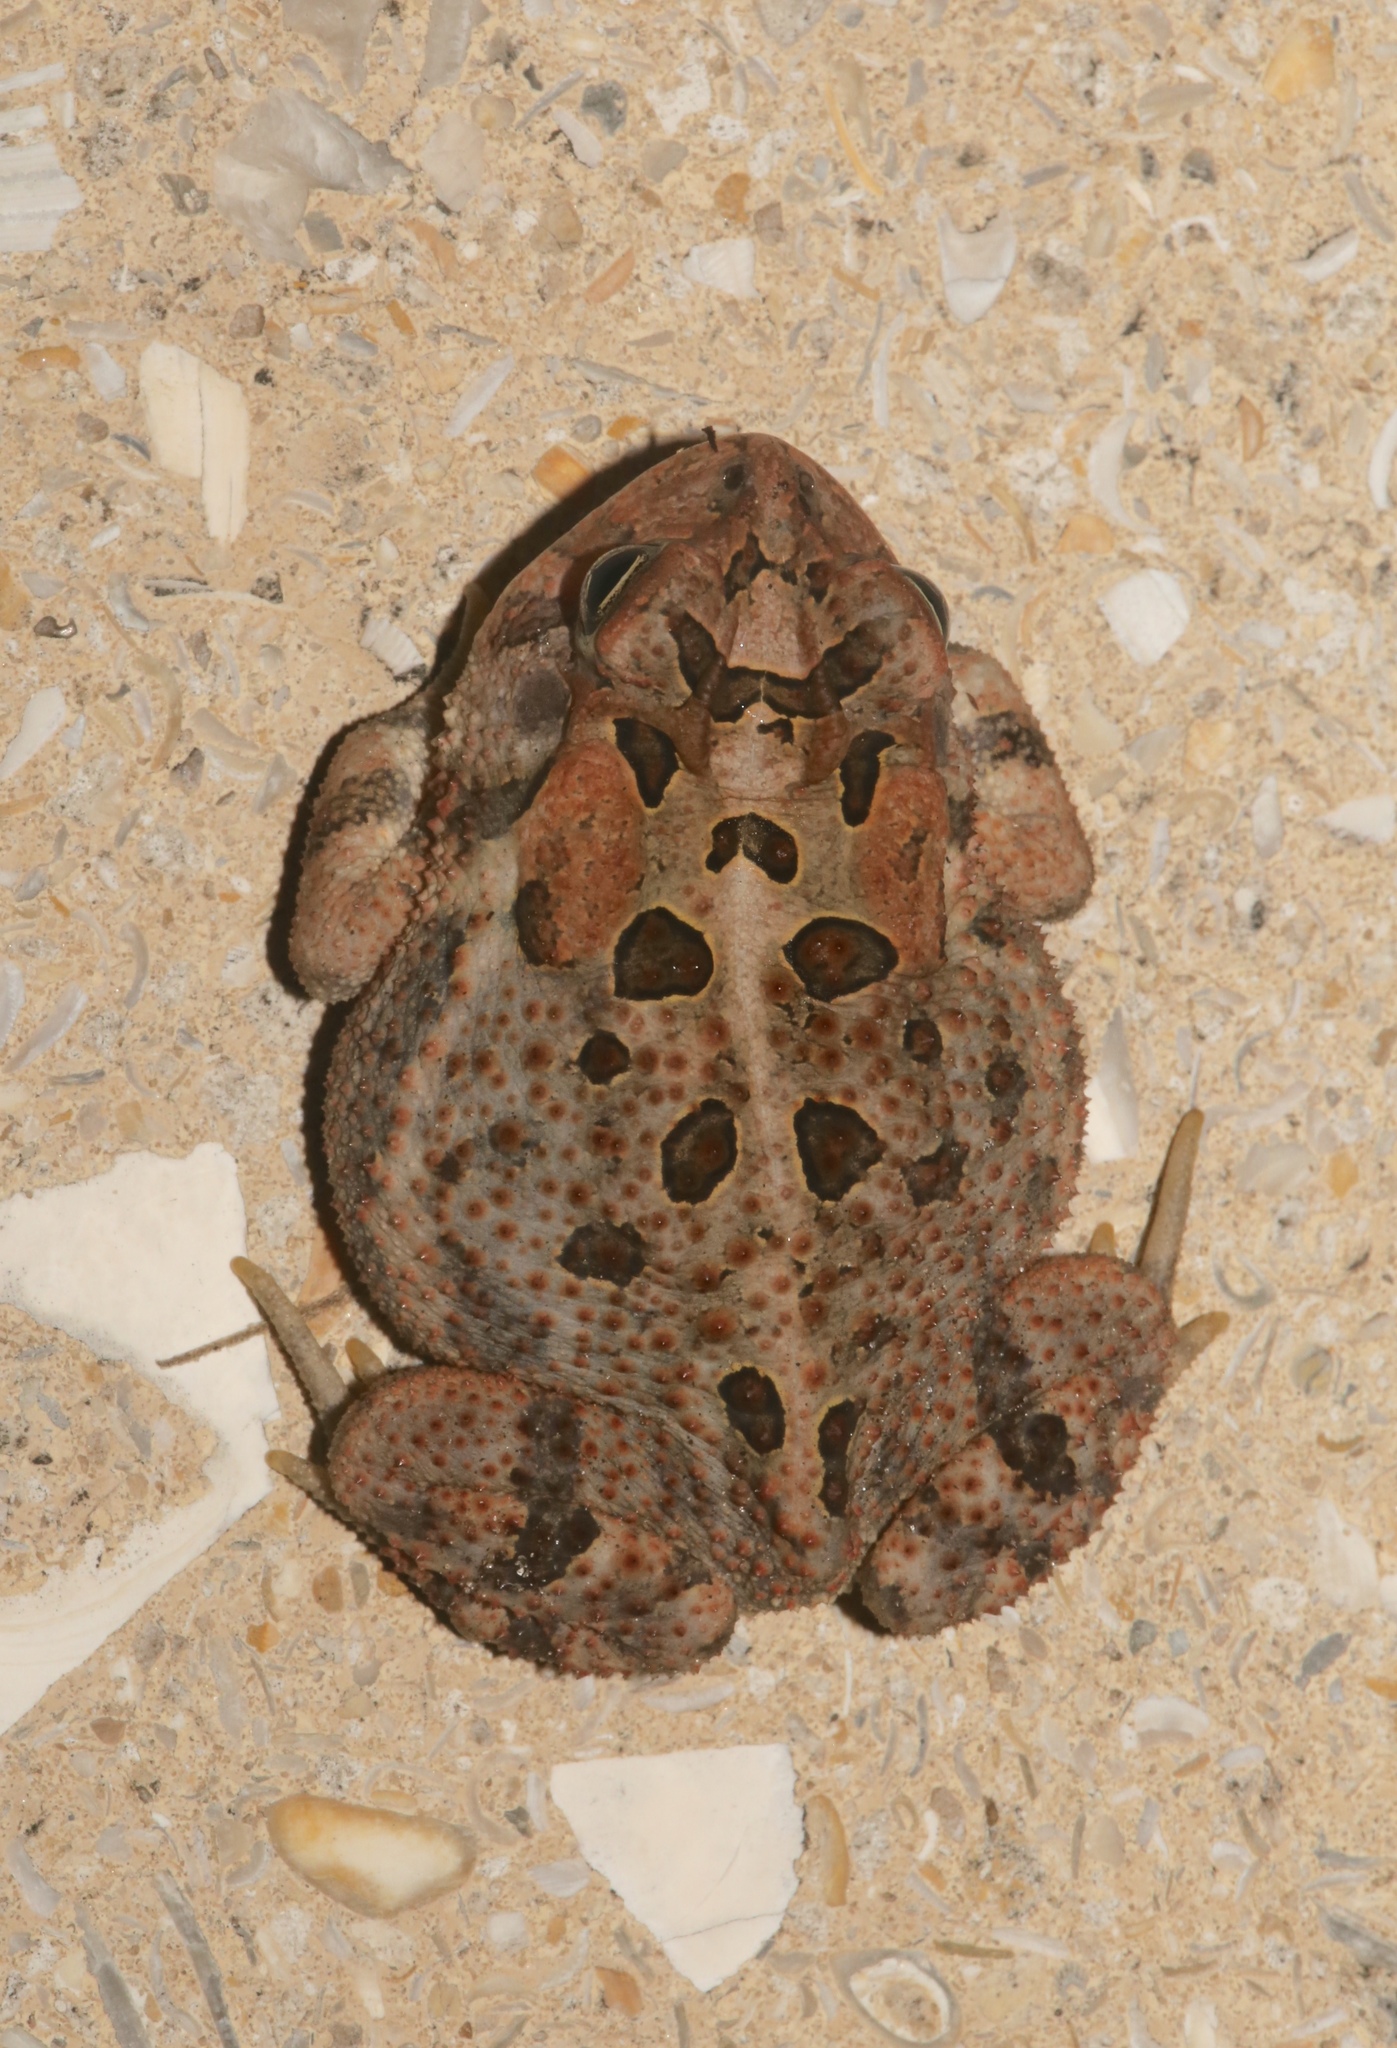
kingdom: Animalia
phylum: Chordata
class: Amphibia
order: Anura
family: Bufonidae
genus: Anaxyrus
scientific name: Anaxyrus terrestris
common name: Southern toad
